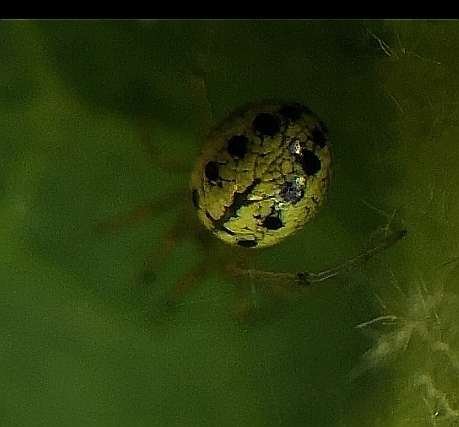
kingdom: Animalia
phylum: Arthropoda
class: Arachnida
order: Araneae
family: Theridiidae
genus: Enoplognatha
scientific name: Enoplognatha ovata
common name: Common candy-striped spider
